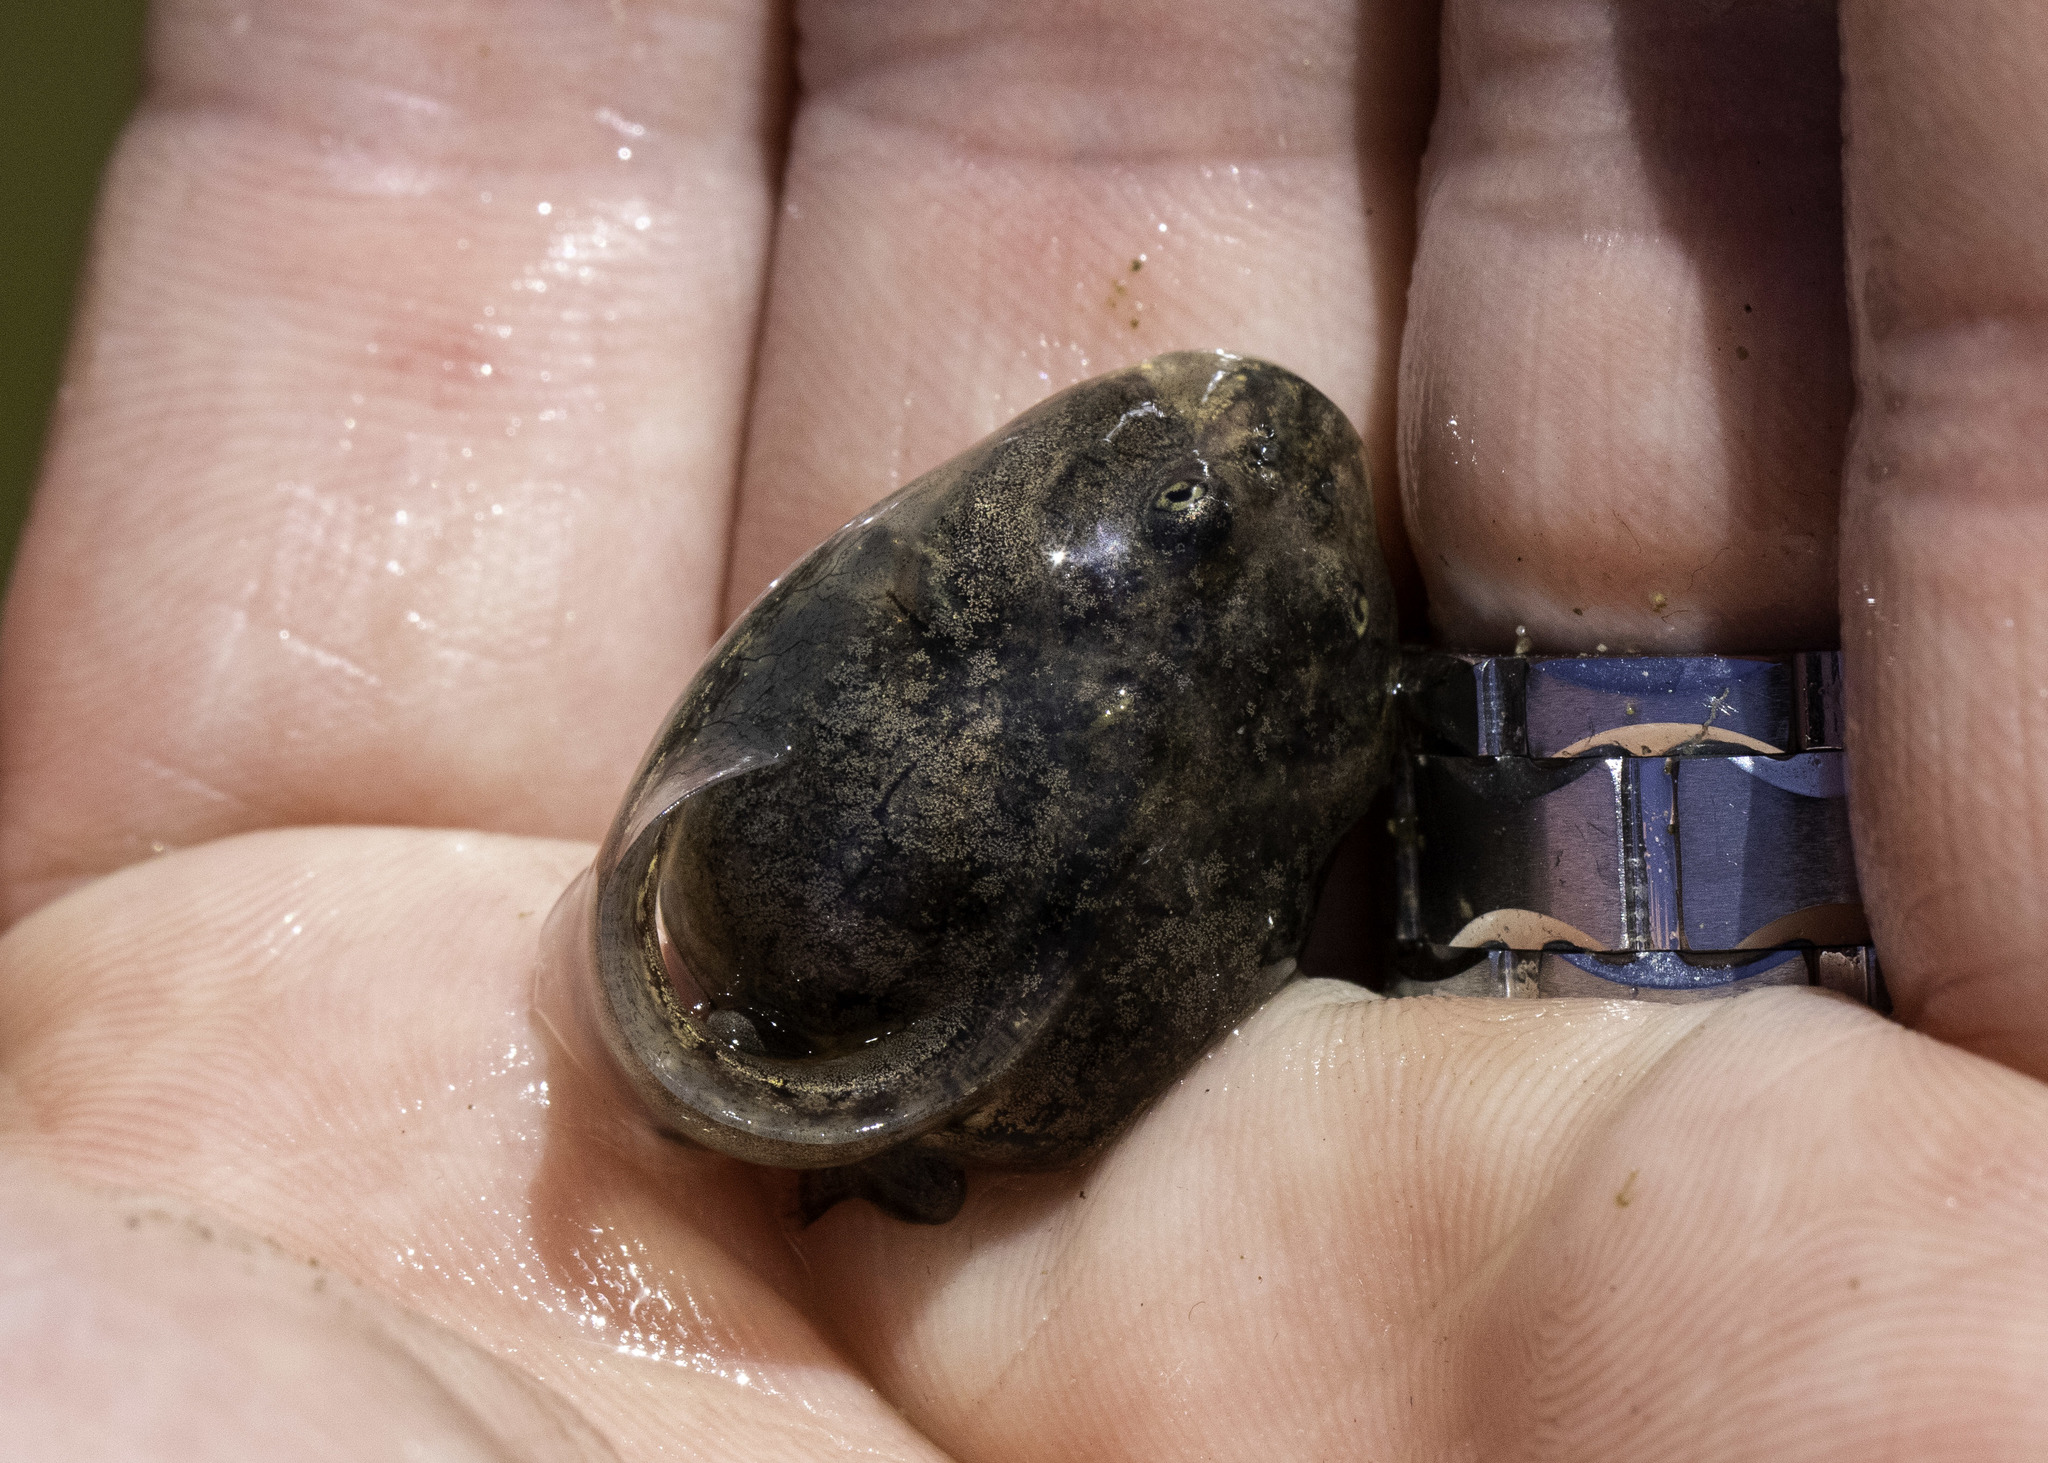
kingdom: Animalia
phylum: Chordata
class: Amphibia
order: Anura
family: Scaphiopodidae
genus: Spea
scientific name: Spea hammondii
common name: Western spadefoot toad
